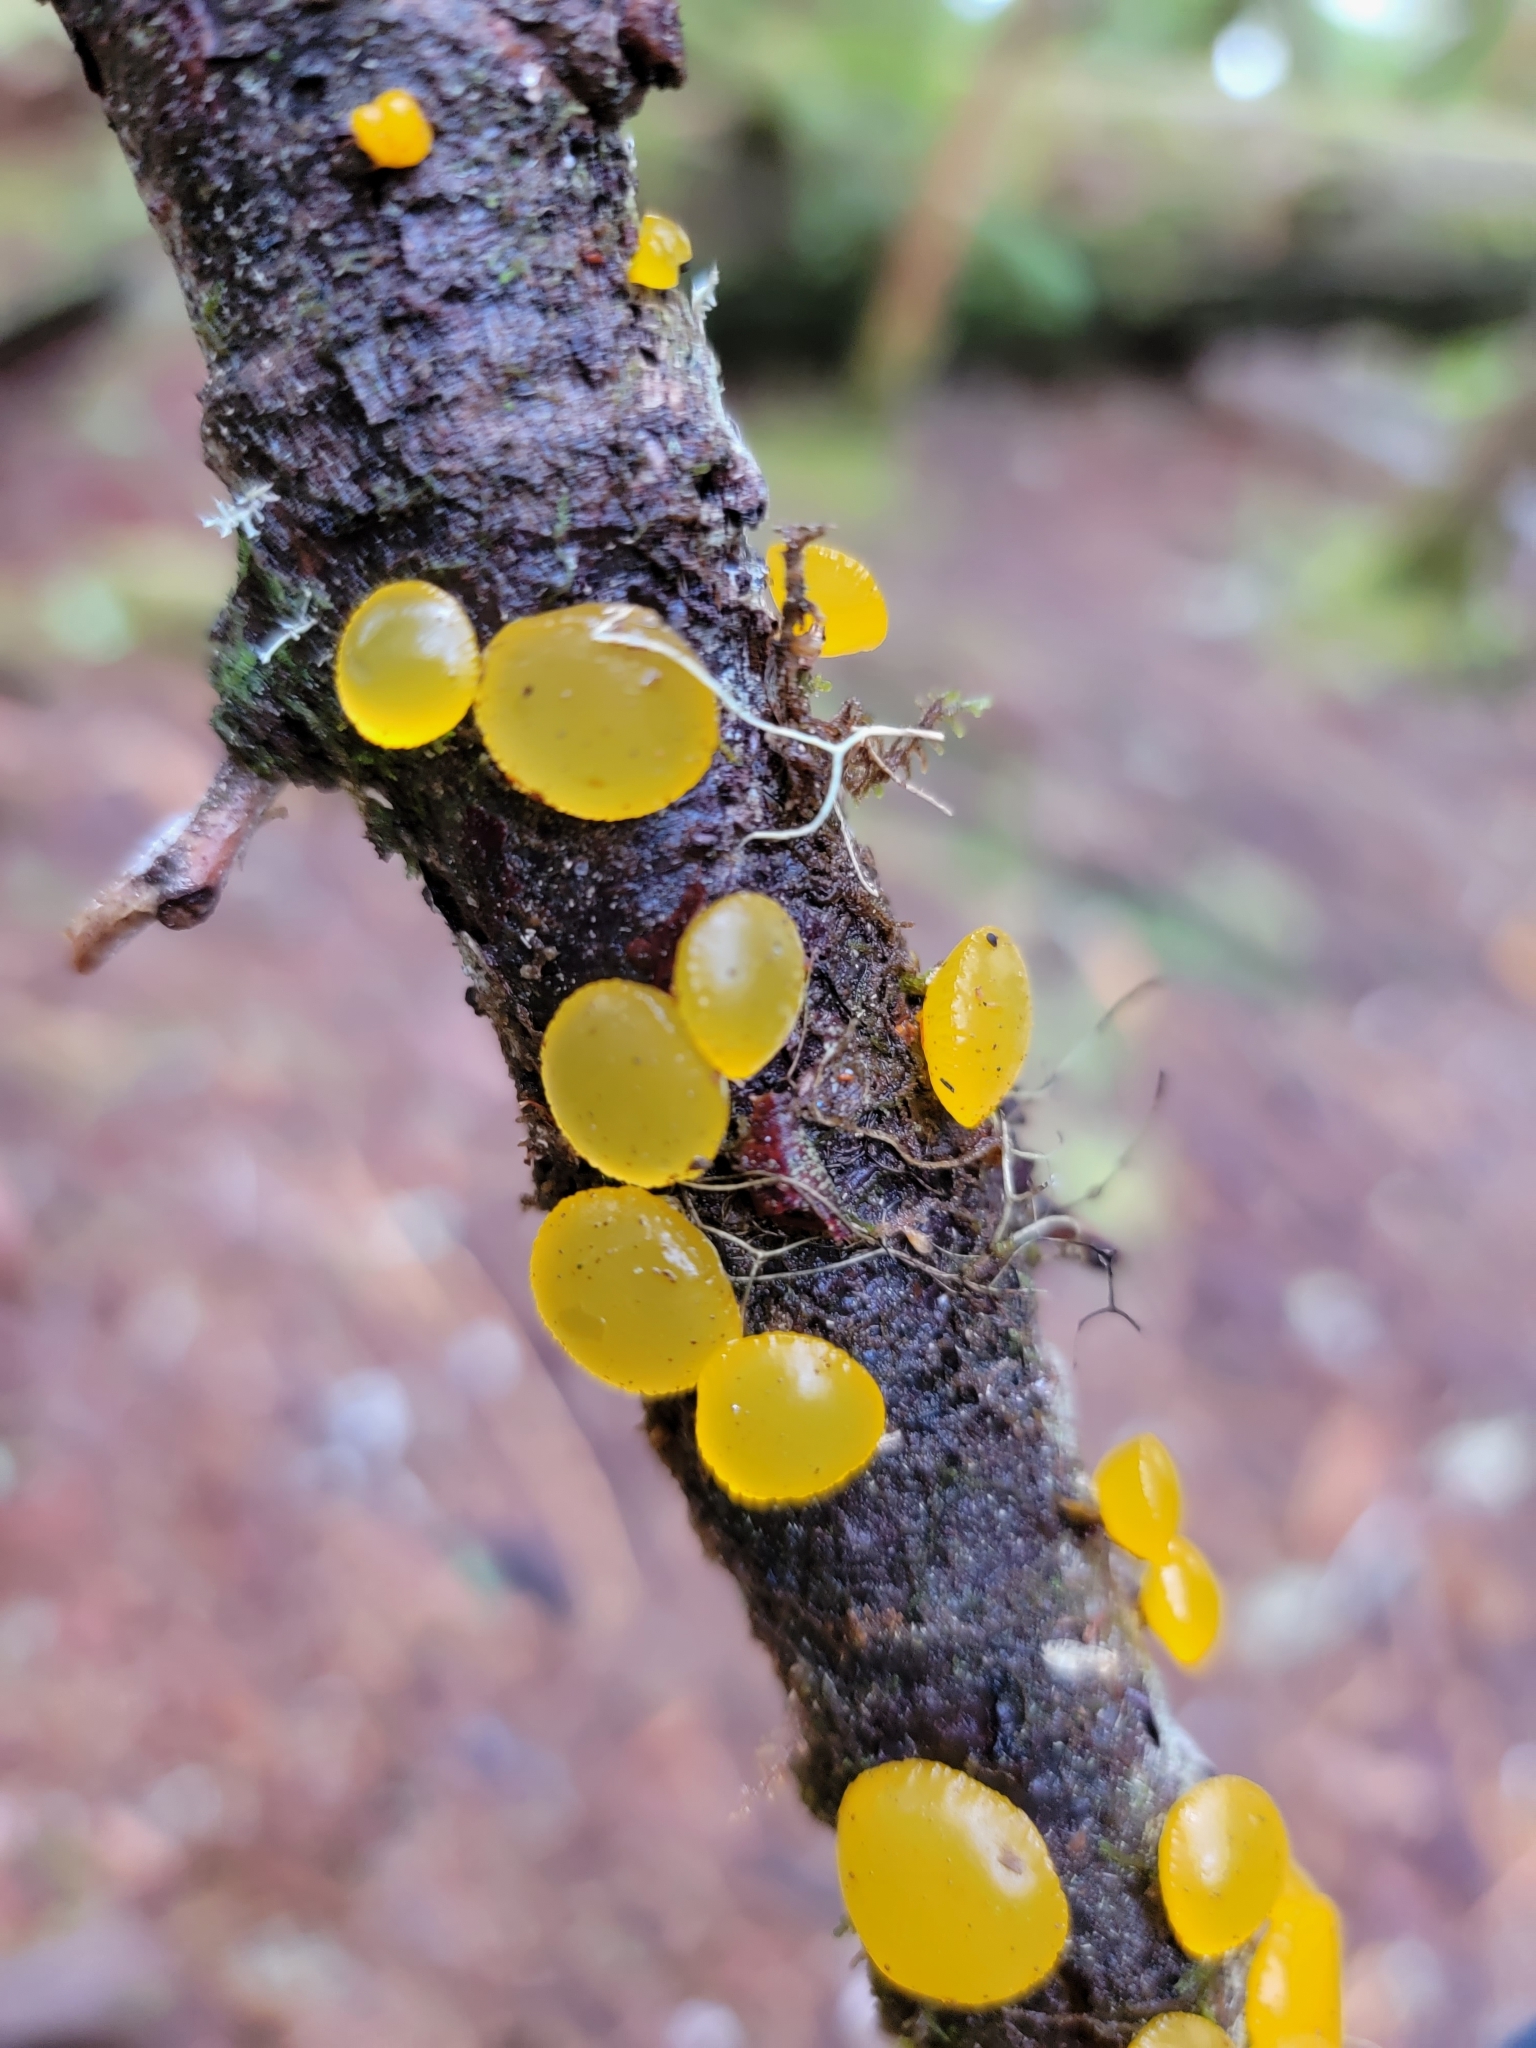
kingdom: Fungi
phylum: Basidiomycota
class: Dacrymycetes
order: Dacrymycetales
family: Dacrymycetaceae
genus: Guepiniopsis
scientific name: Guepiniopsis alpina
